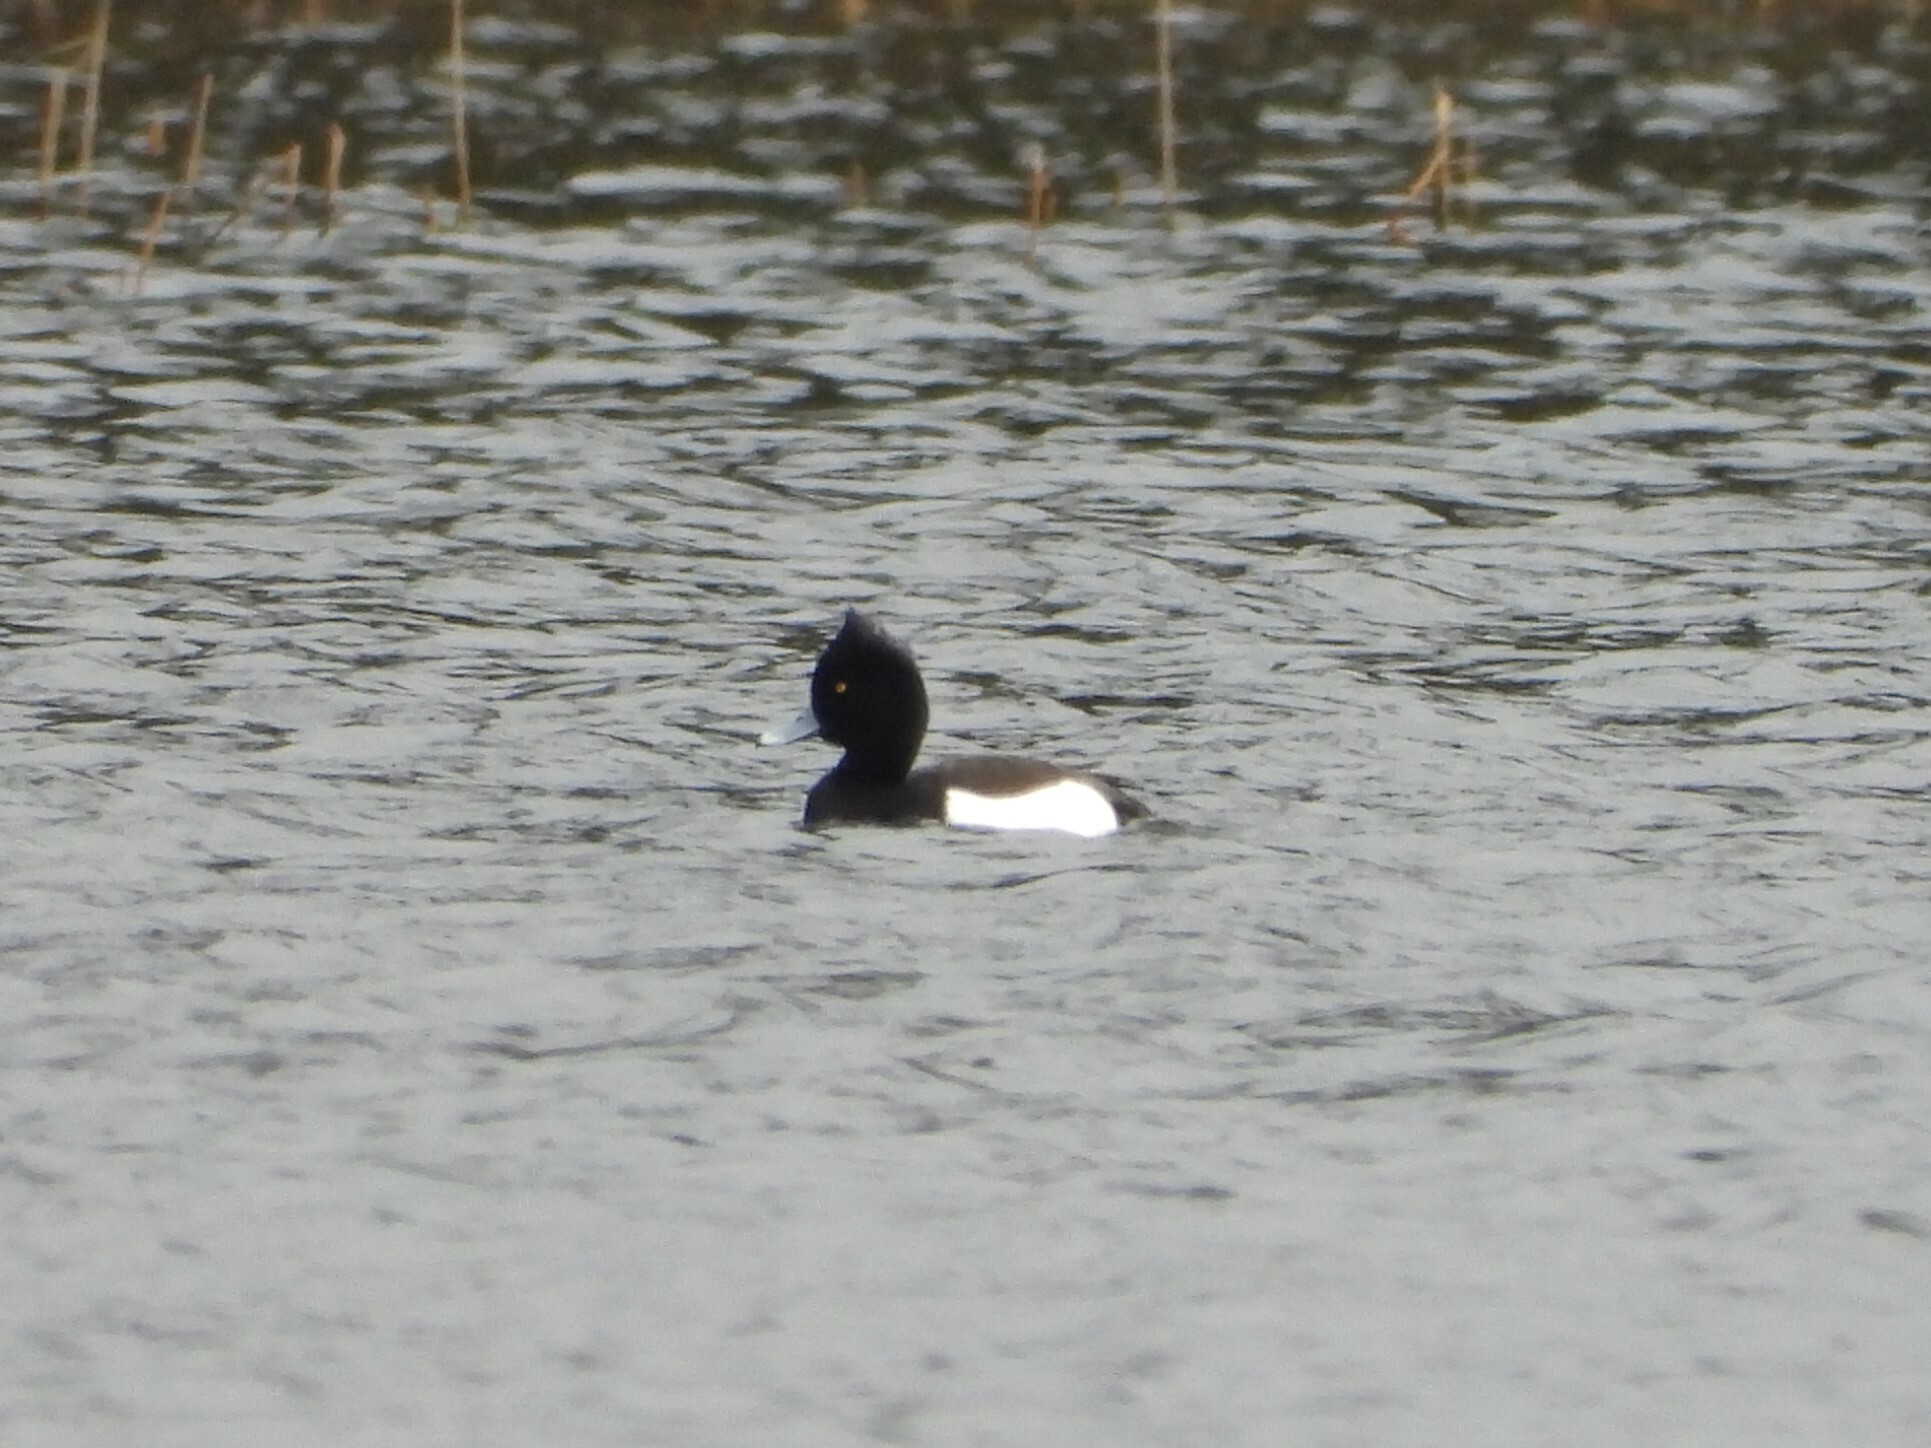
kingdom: Animalia
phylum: Chordata
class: Aves
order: Anseriformes
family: Anatidae
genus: Aythya
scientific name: Aythya fuligula
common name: Tufted duck
